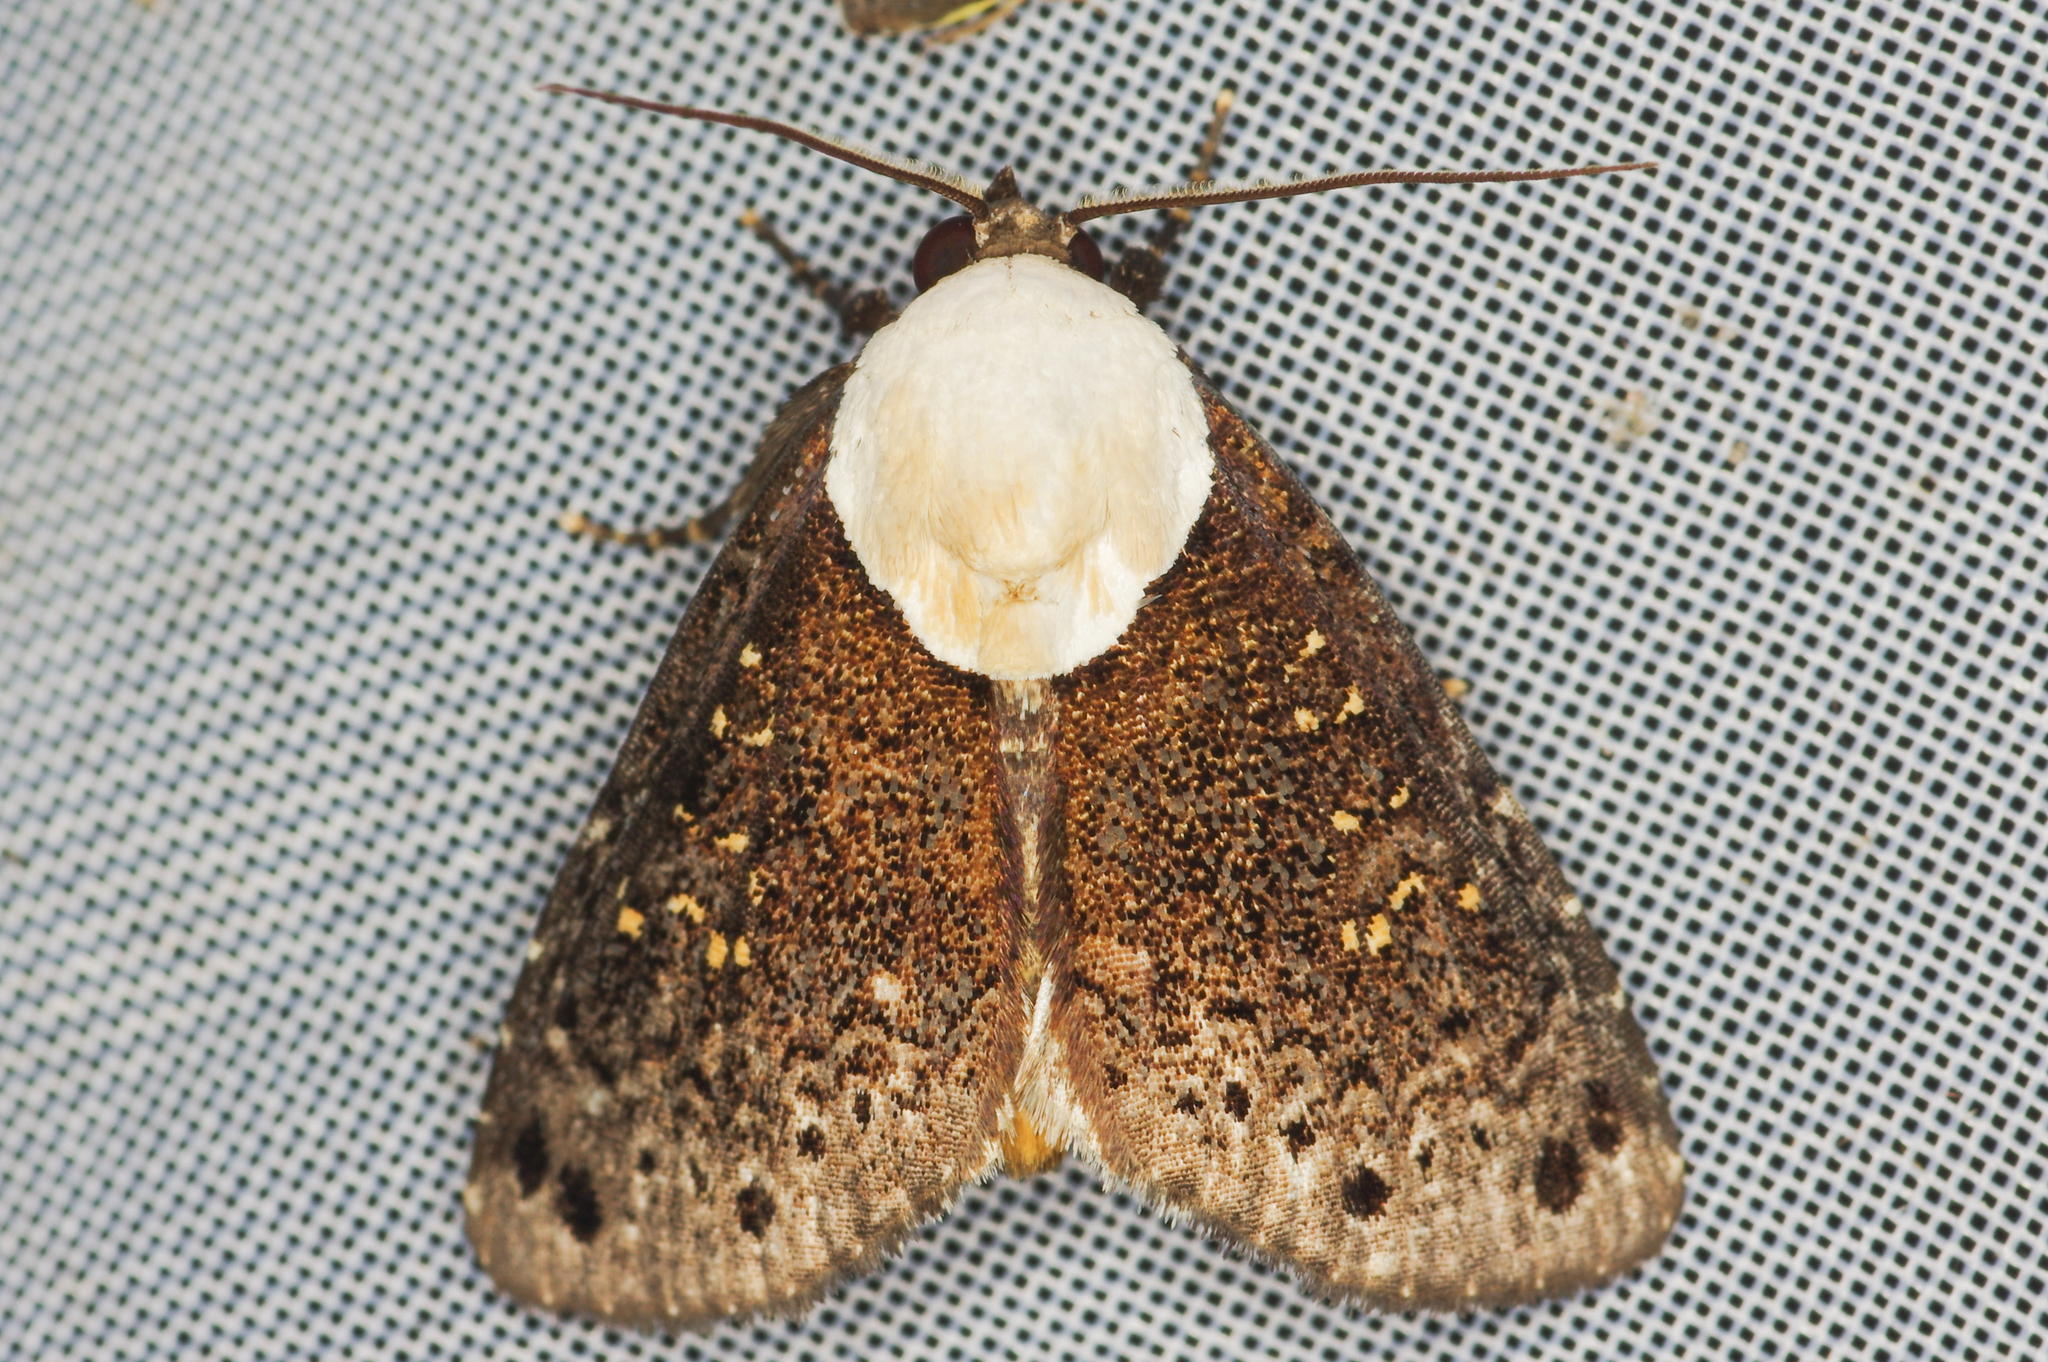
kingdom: Animalia
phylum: Arthropoda
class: Insecta
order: Lepidoptera
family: Nolidae
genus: Baileya
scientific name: Baileya rhizoleuca
